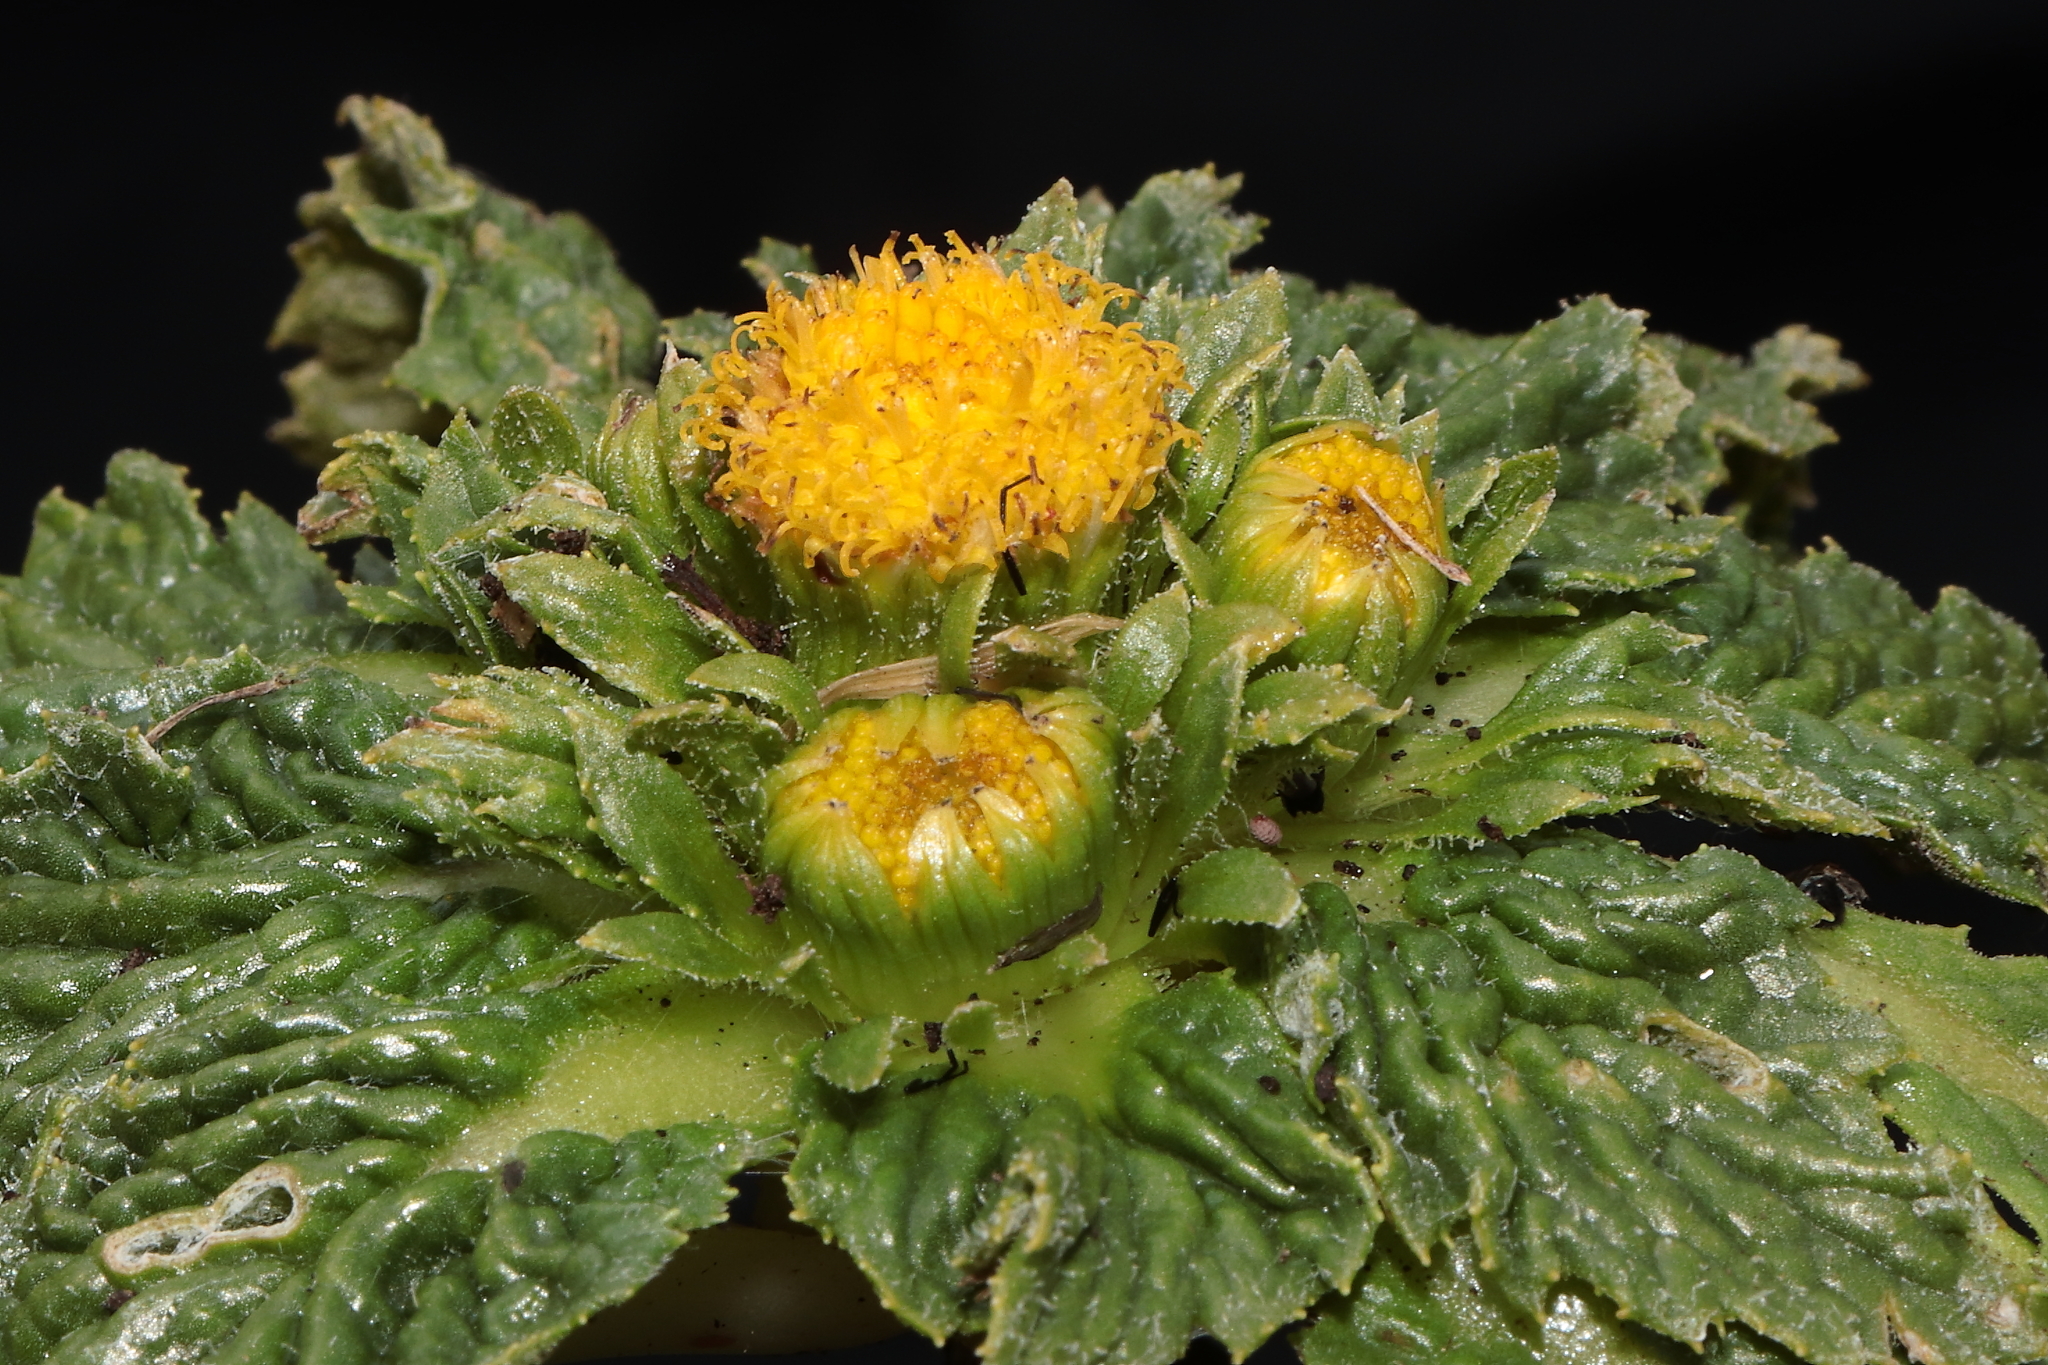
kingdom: Plantae
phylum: Tracheophyta
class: Magnoliopsida
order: Asterales
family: Asteraceae
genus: Senecio
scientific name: Senecio rhizocephalus
